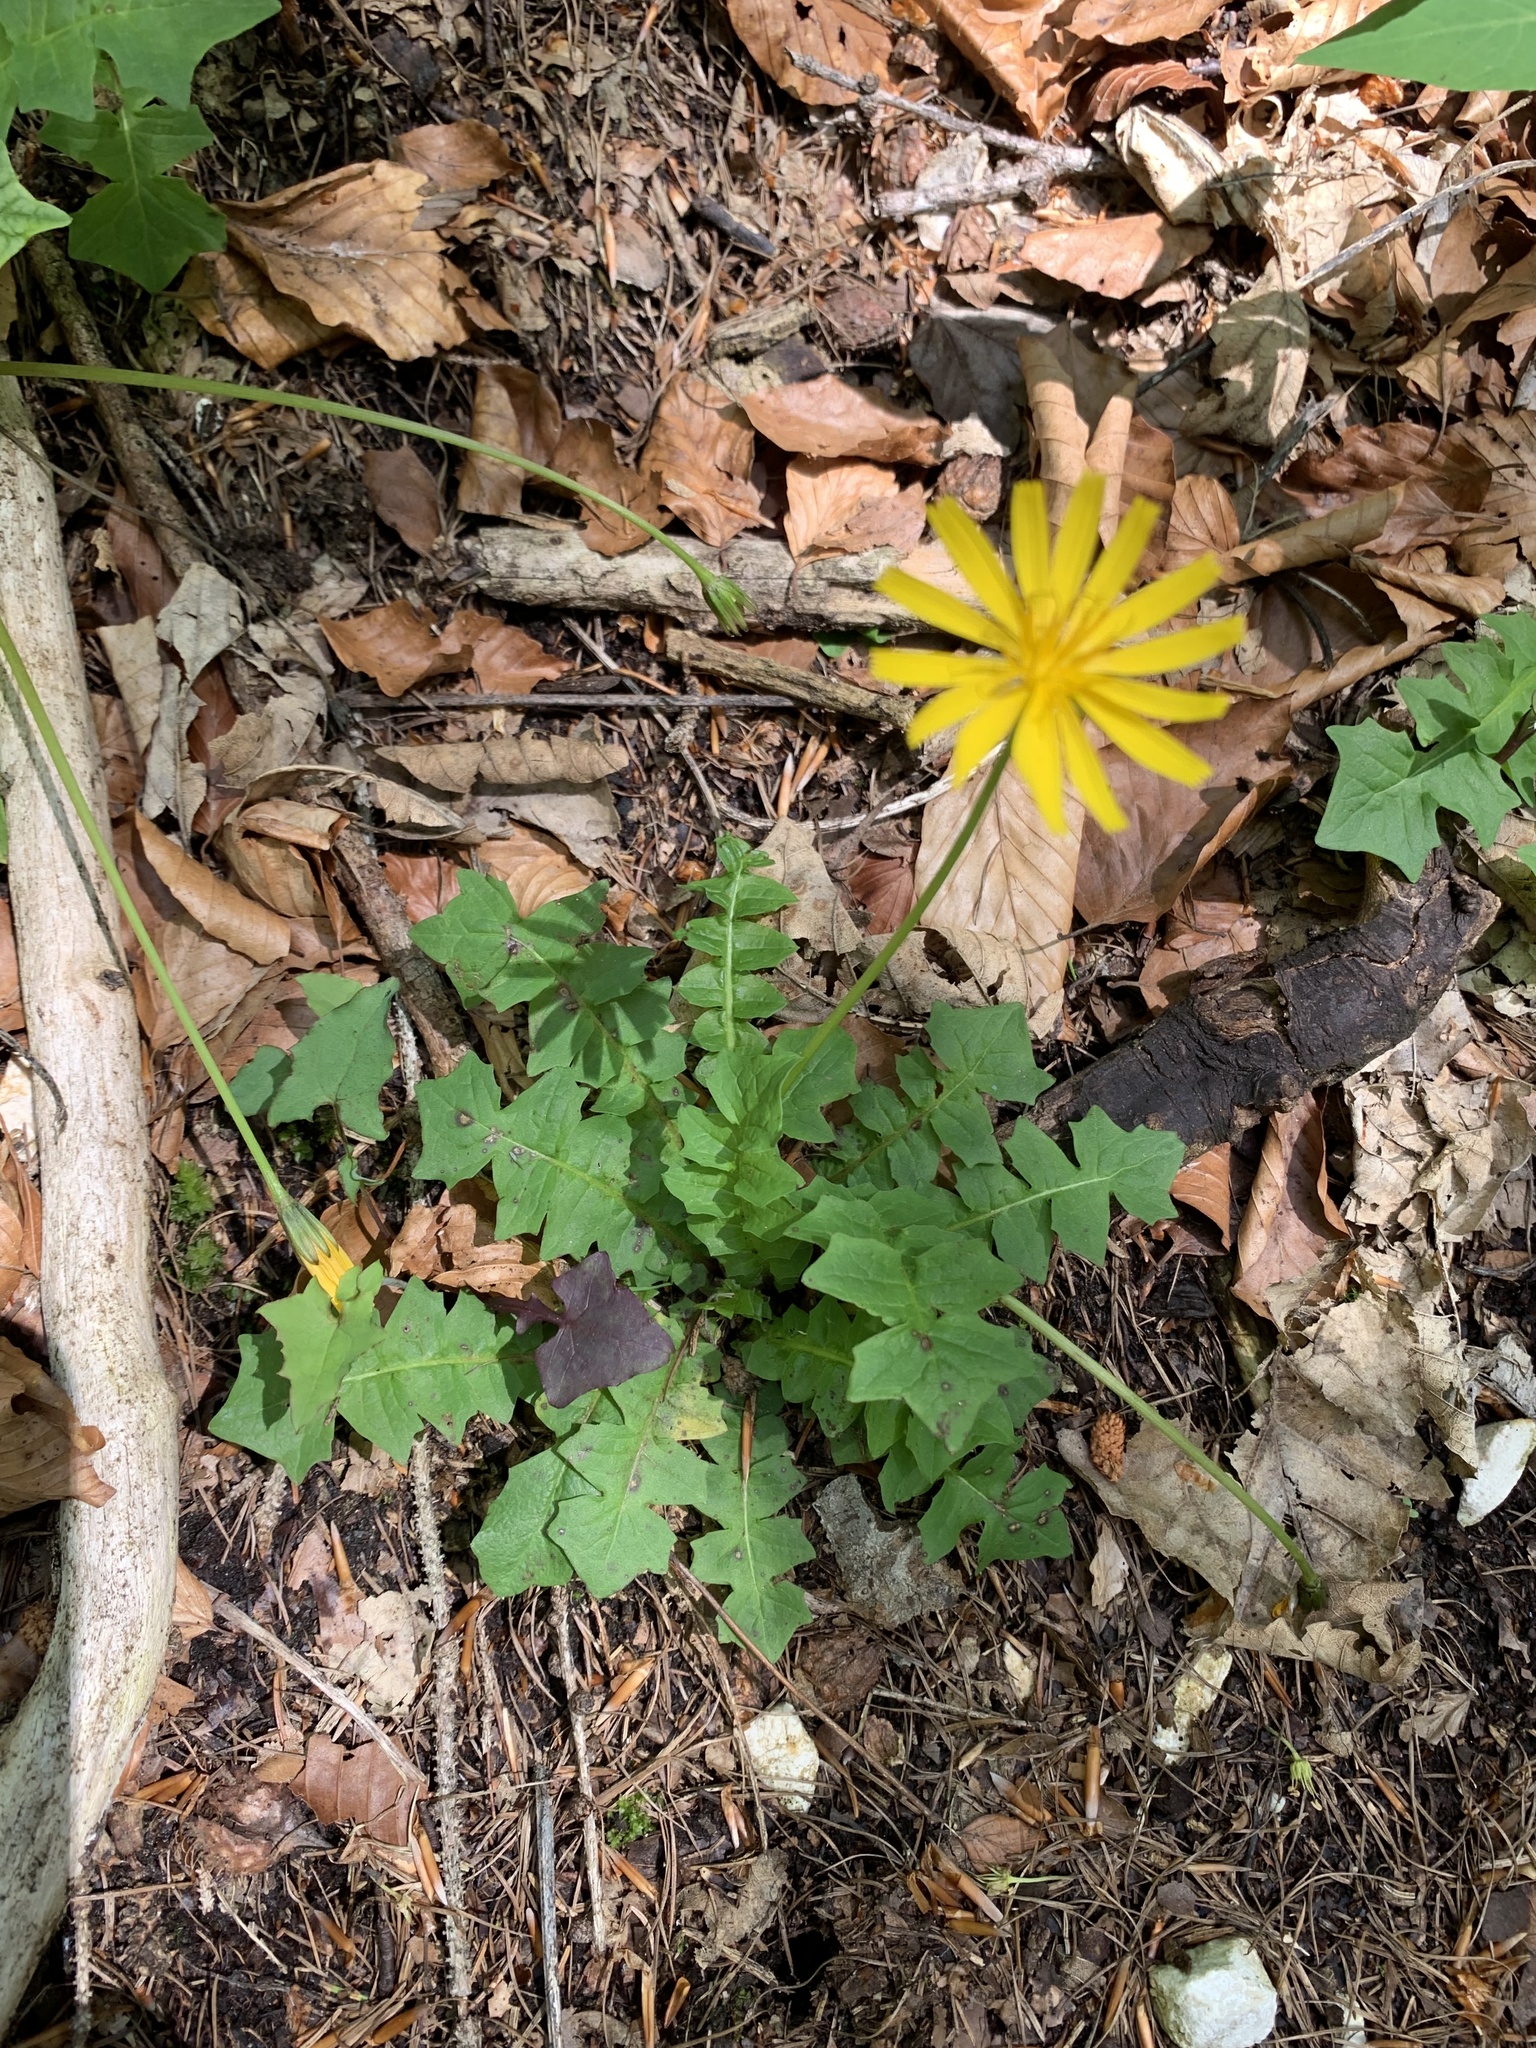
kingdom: Plantae
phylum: Tracheophyta
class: Magnoliopsida
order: Asterales
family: Asteraceae
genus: Aposeris
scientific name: Aposeris foetida
